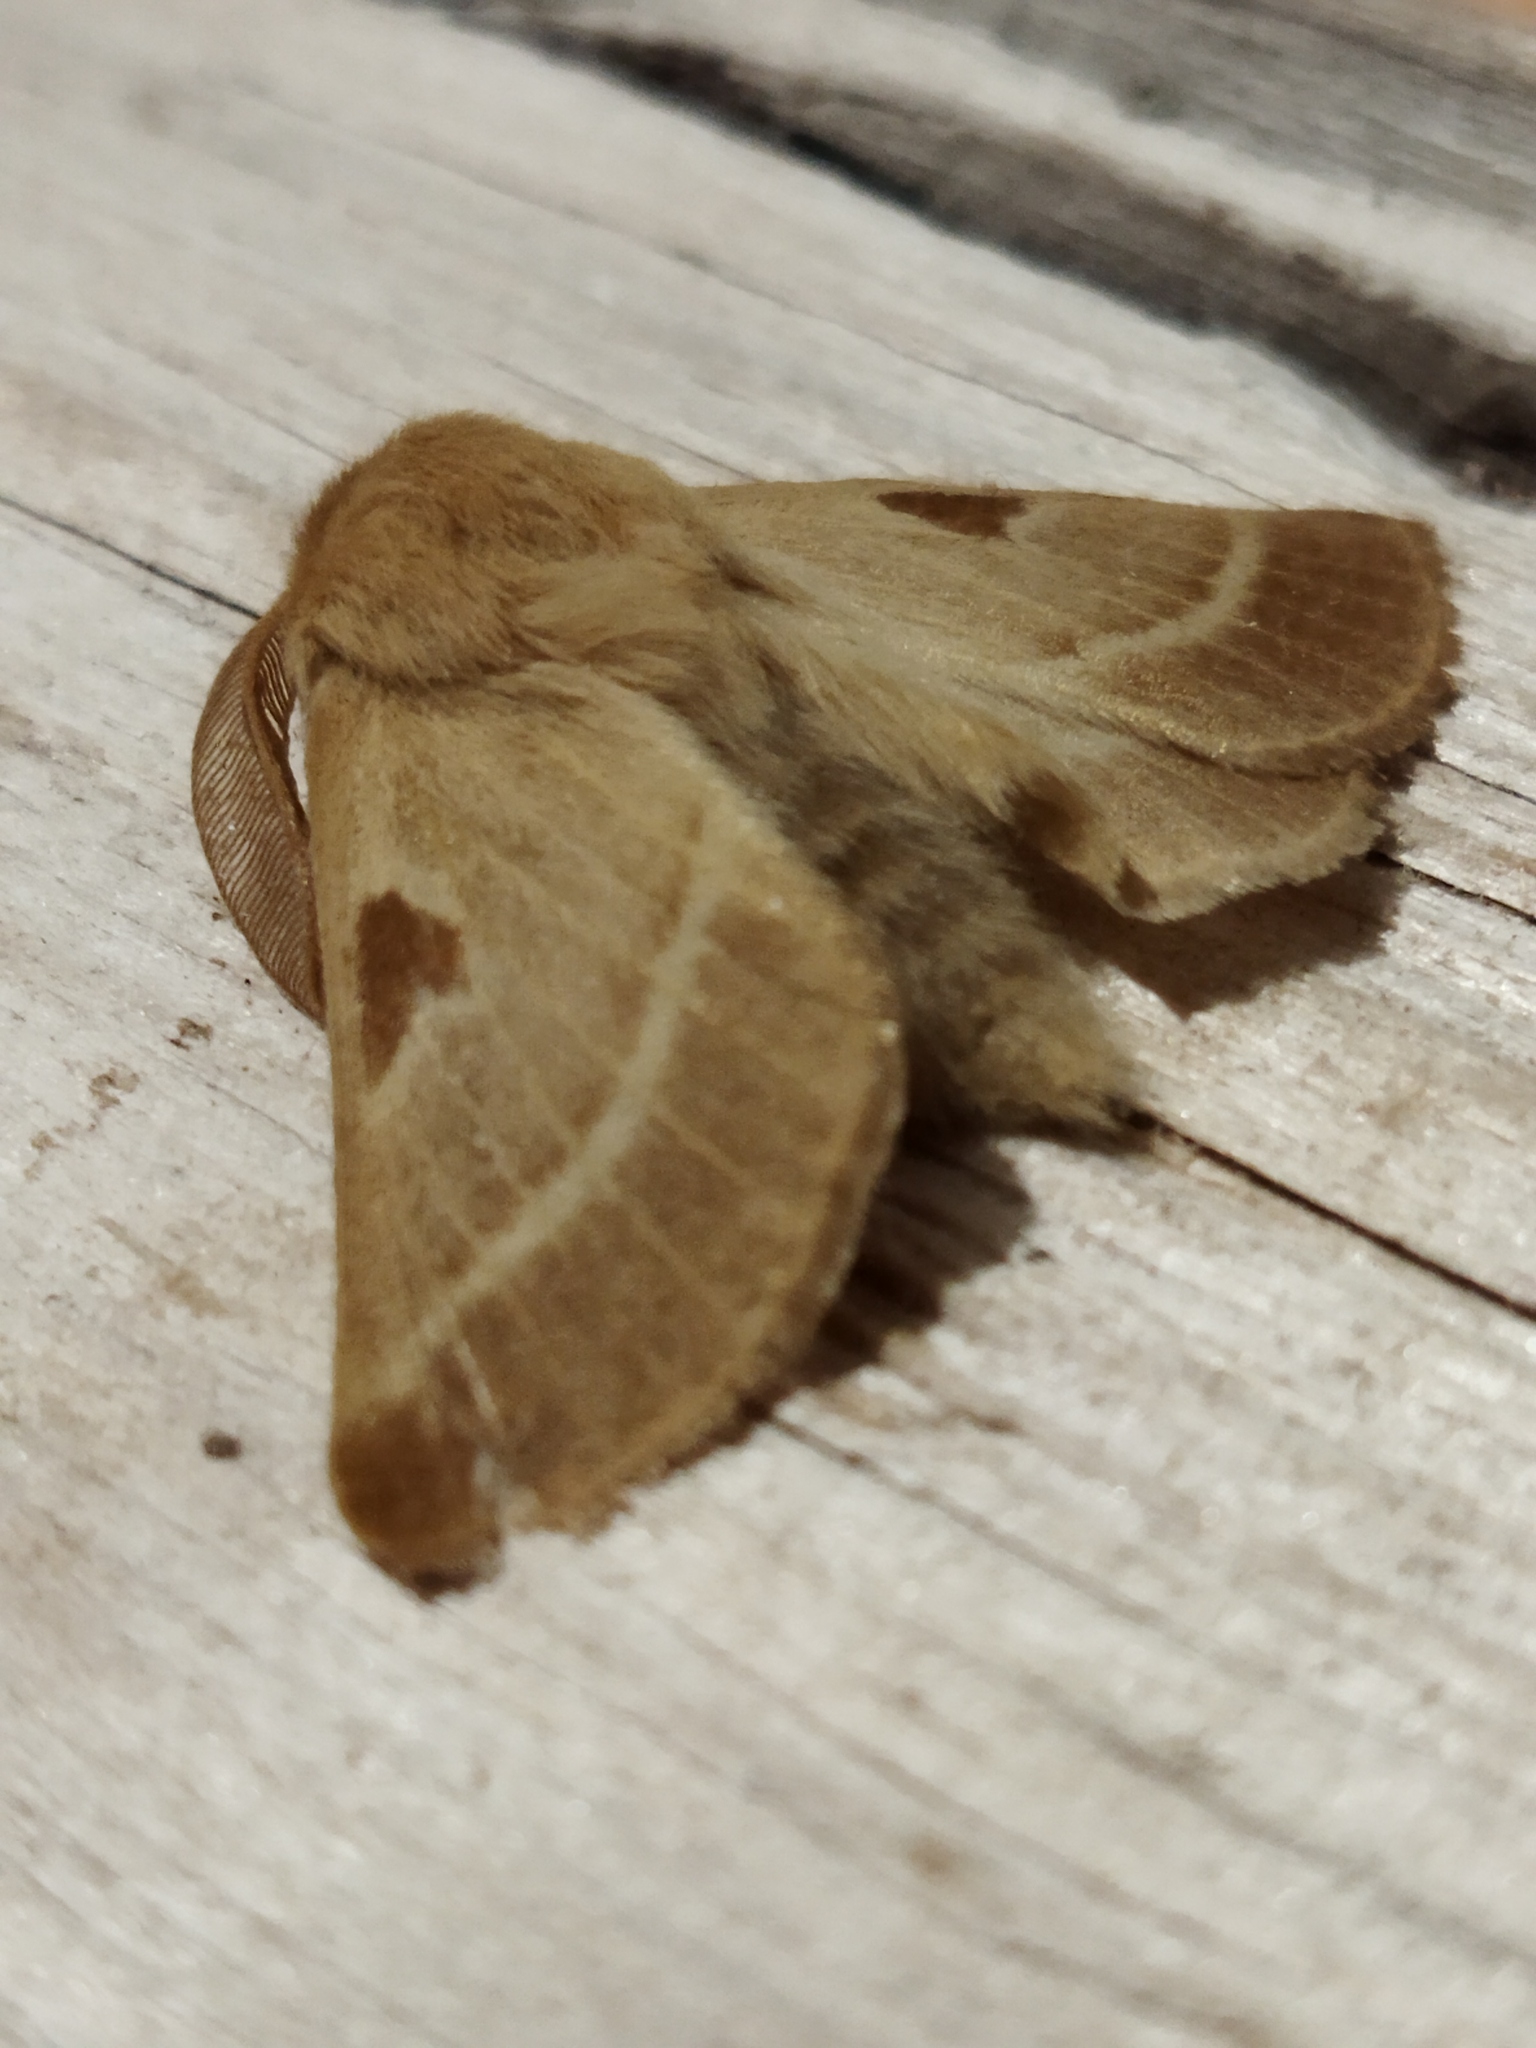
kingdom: Animalia
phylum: Arthropoda
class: Insecta
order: Lepidoptera
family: Brahmaeidae
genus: Lemonia
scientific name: Lemonia balcanica
